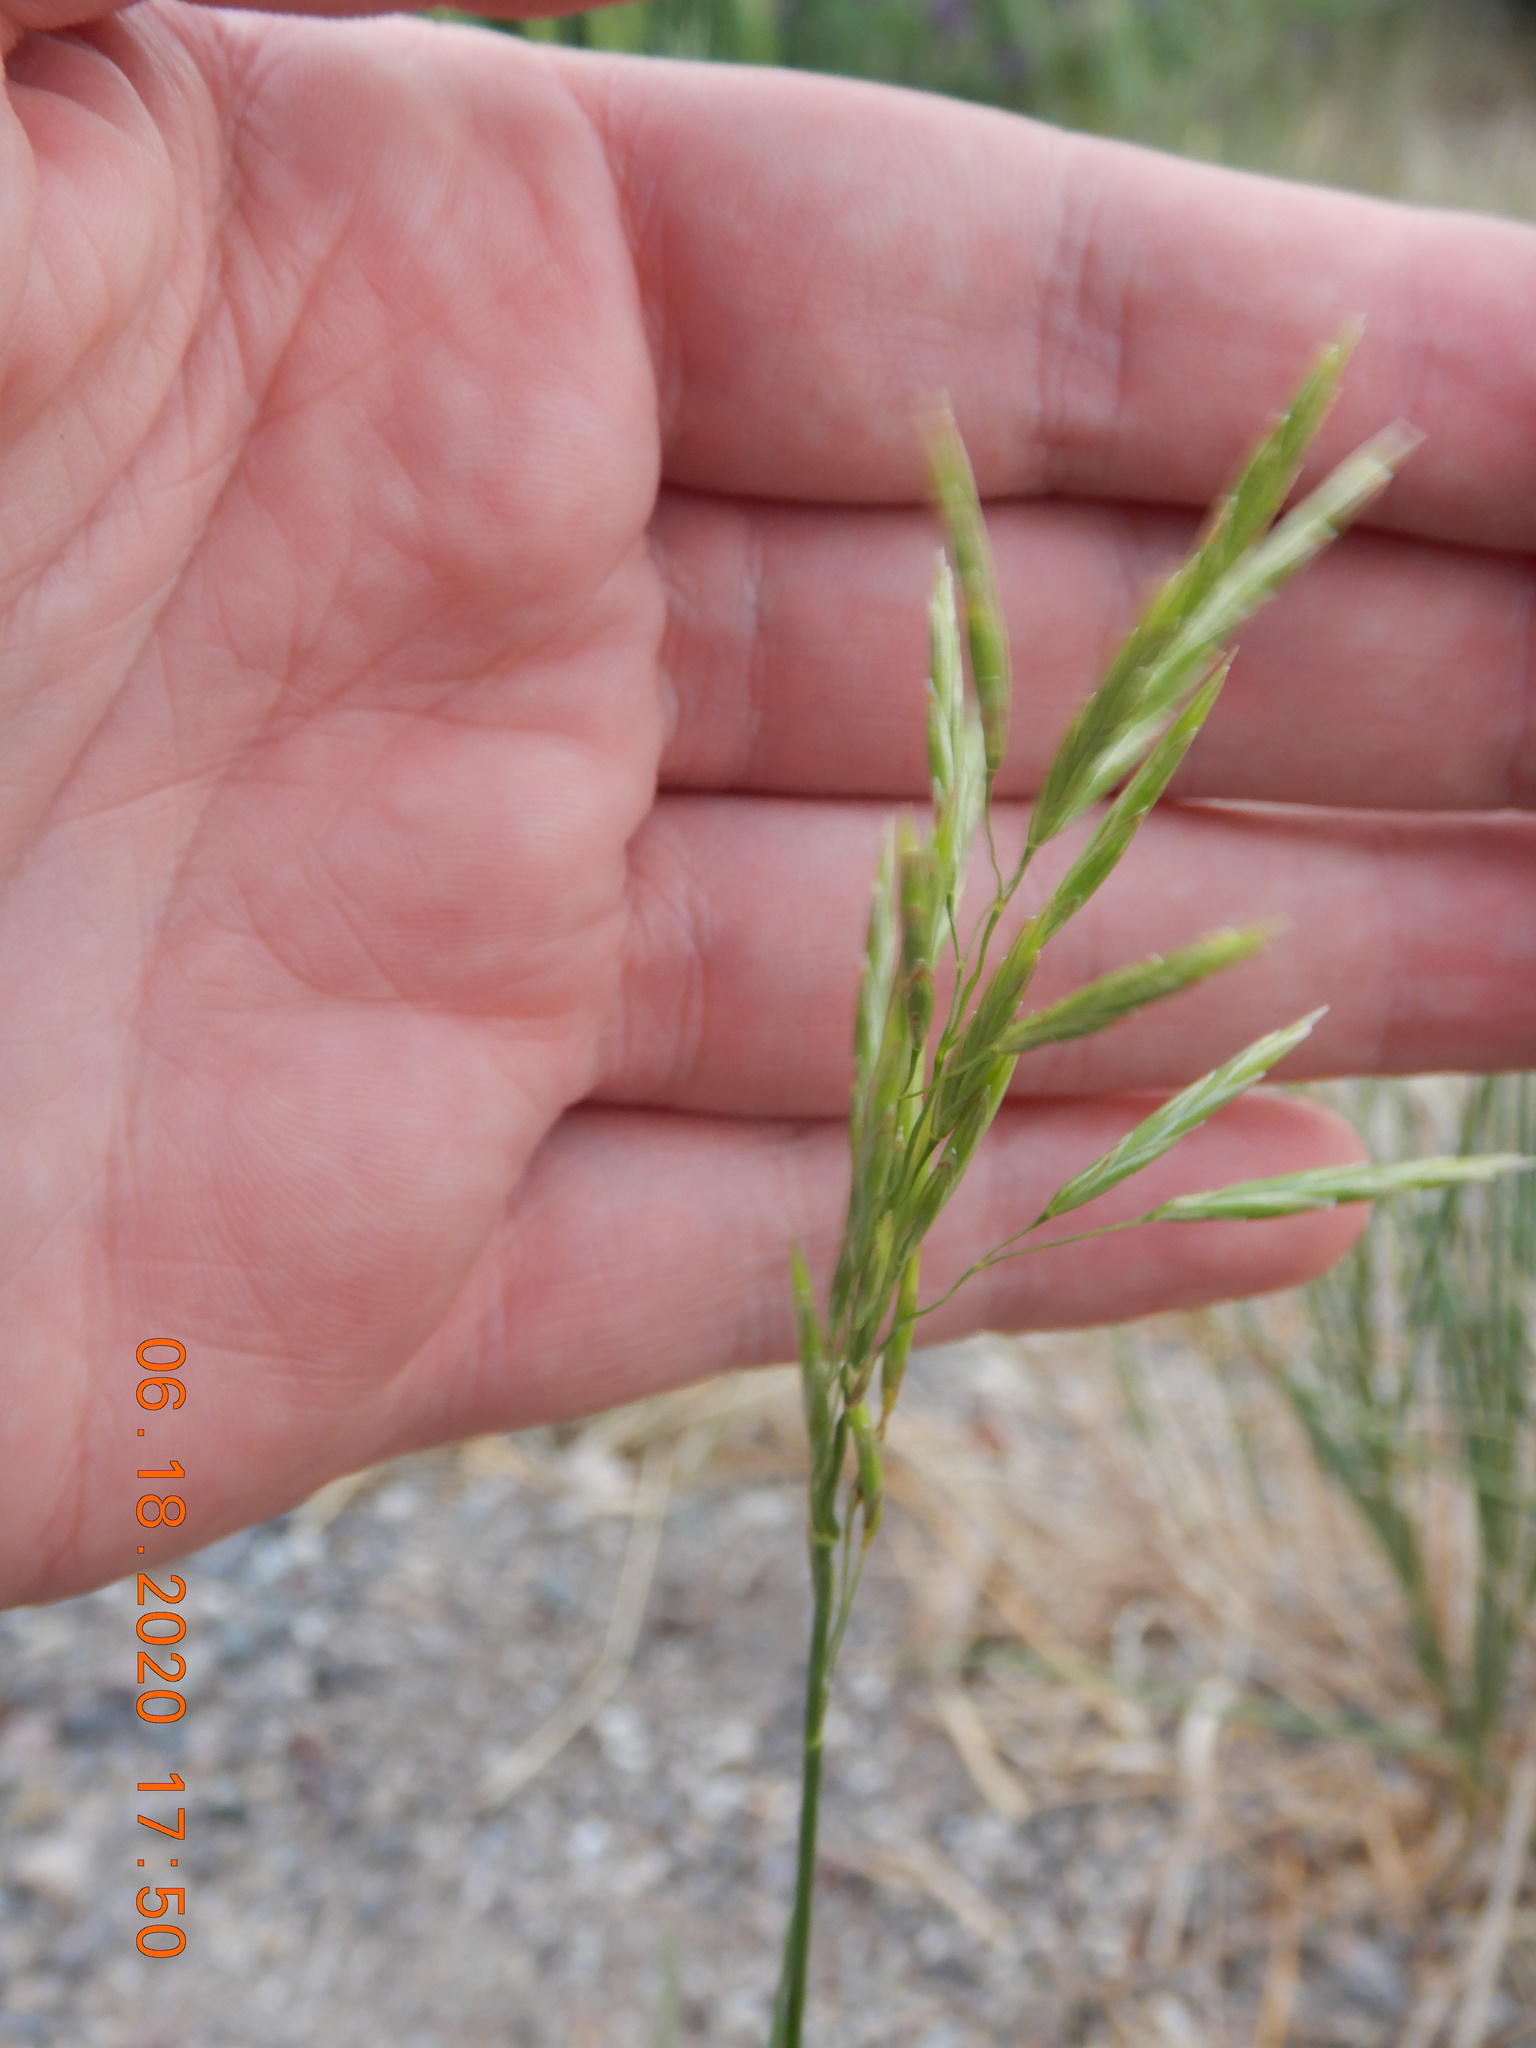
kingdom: Plantae
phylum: Tracheophyta
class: Liliopsida
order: Poales
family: Poaceae
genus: Bromus
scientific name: Bromus inermis
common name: Smooth brome
